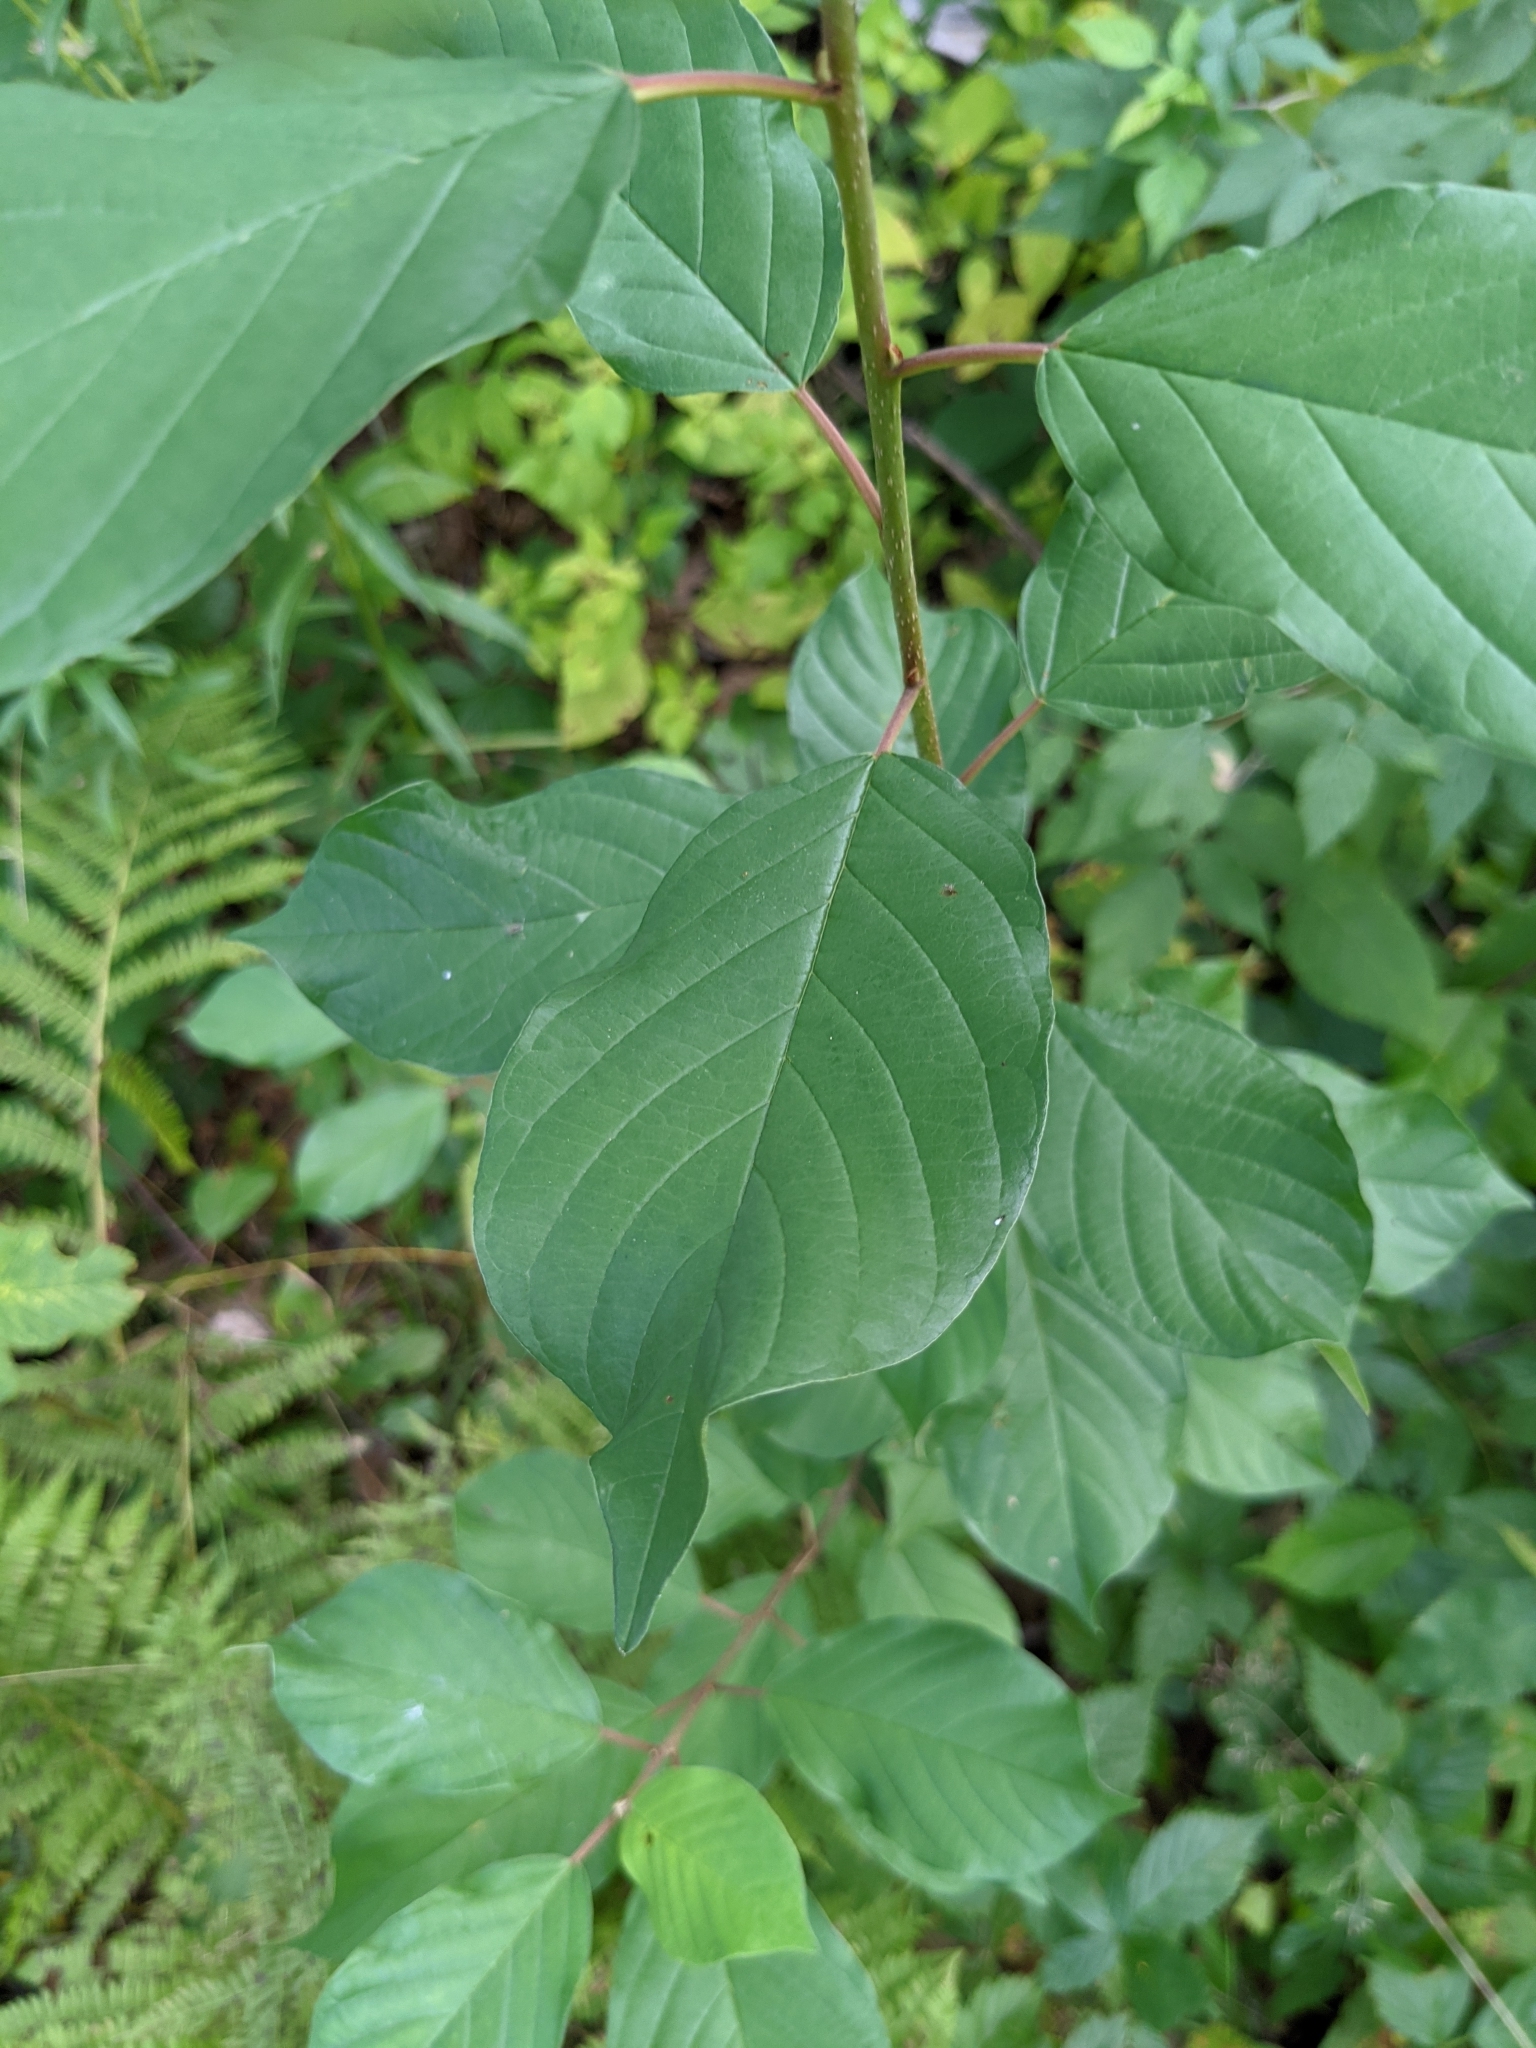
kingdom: Plantae
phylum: Tracheophyta
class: Magnoliopsida
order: Rosales
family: Rhamnaceae
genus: Frangula
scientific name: Frangula alnus
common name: Alder buckthorn
